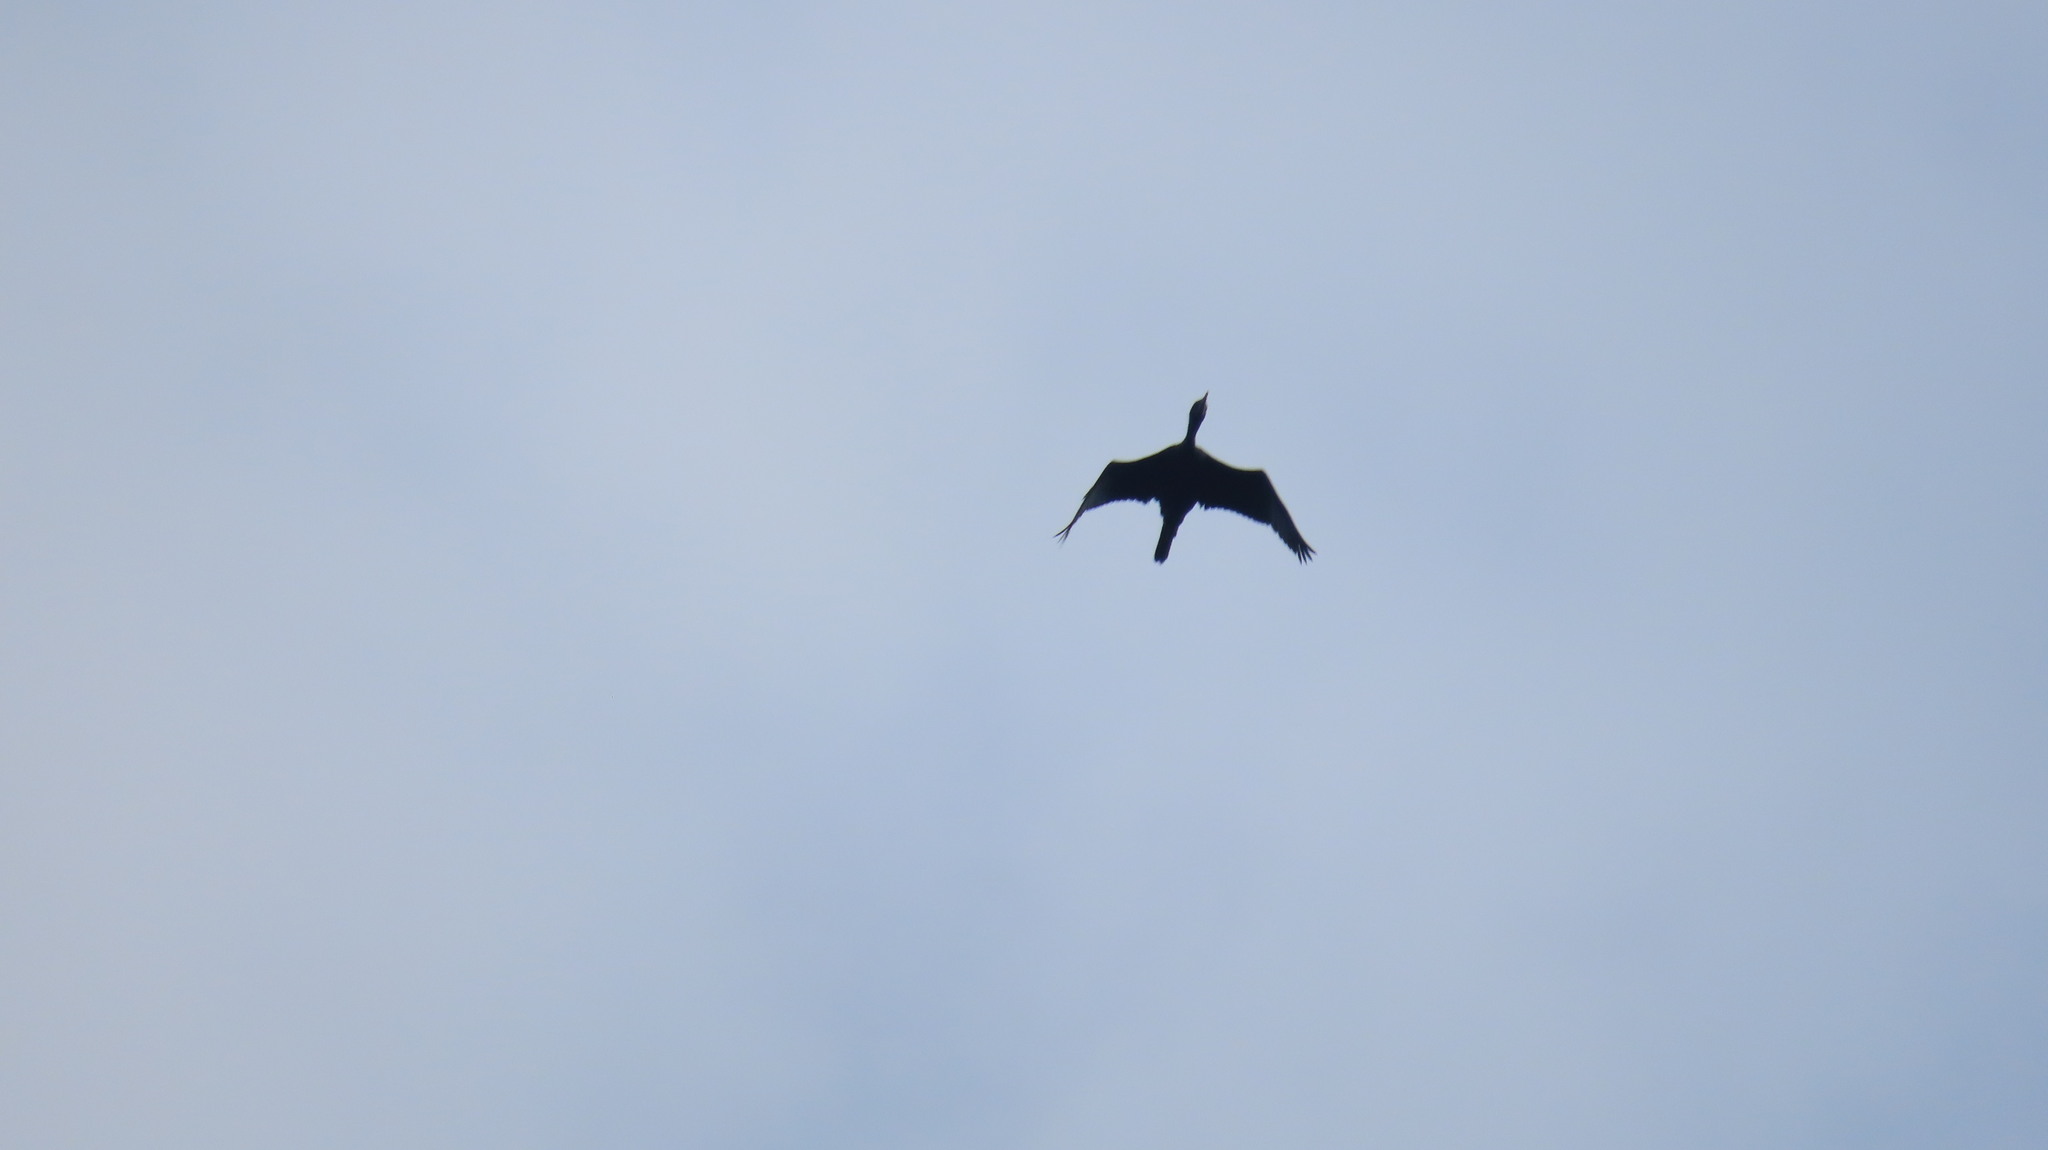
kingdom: Animalia
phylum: Chordata
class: Aves
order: Suliformes
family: Phalacrocoracidae
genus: Microcarbo
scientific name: Microcarbo niger
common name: Little cormorant
